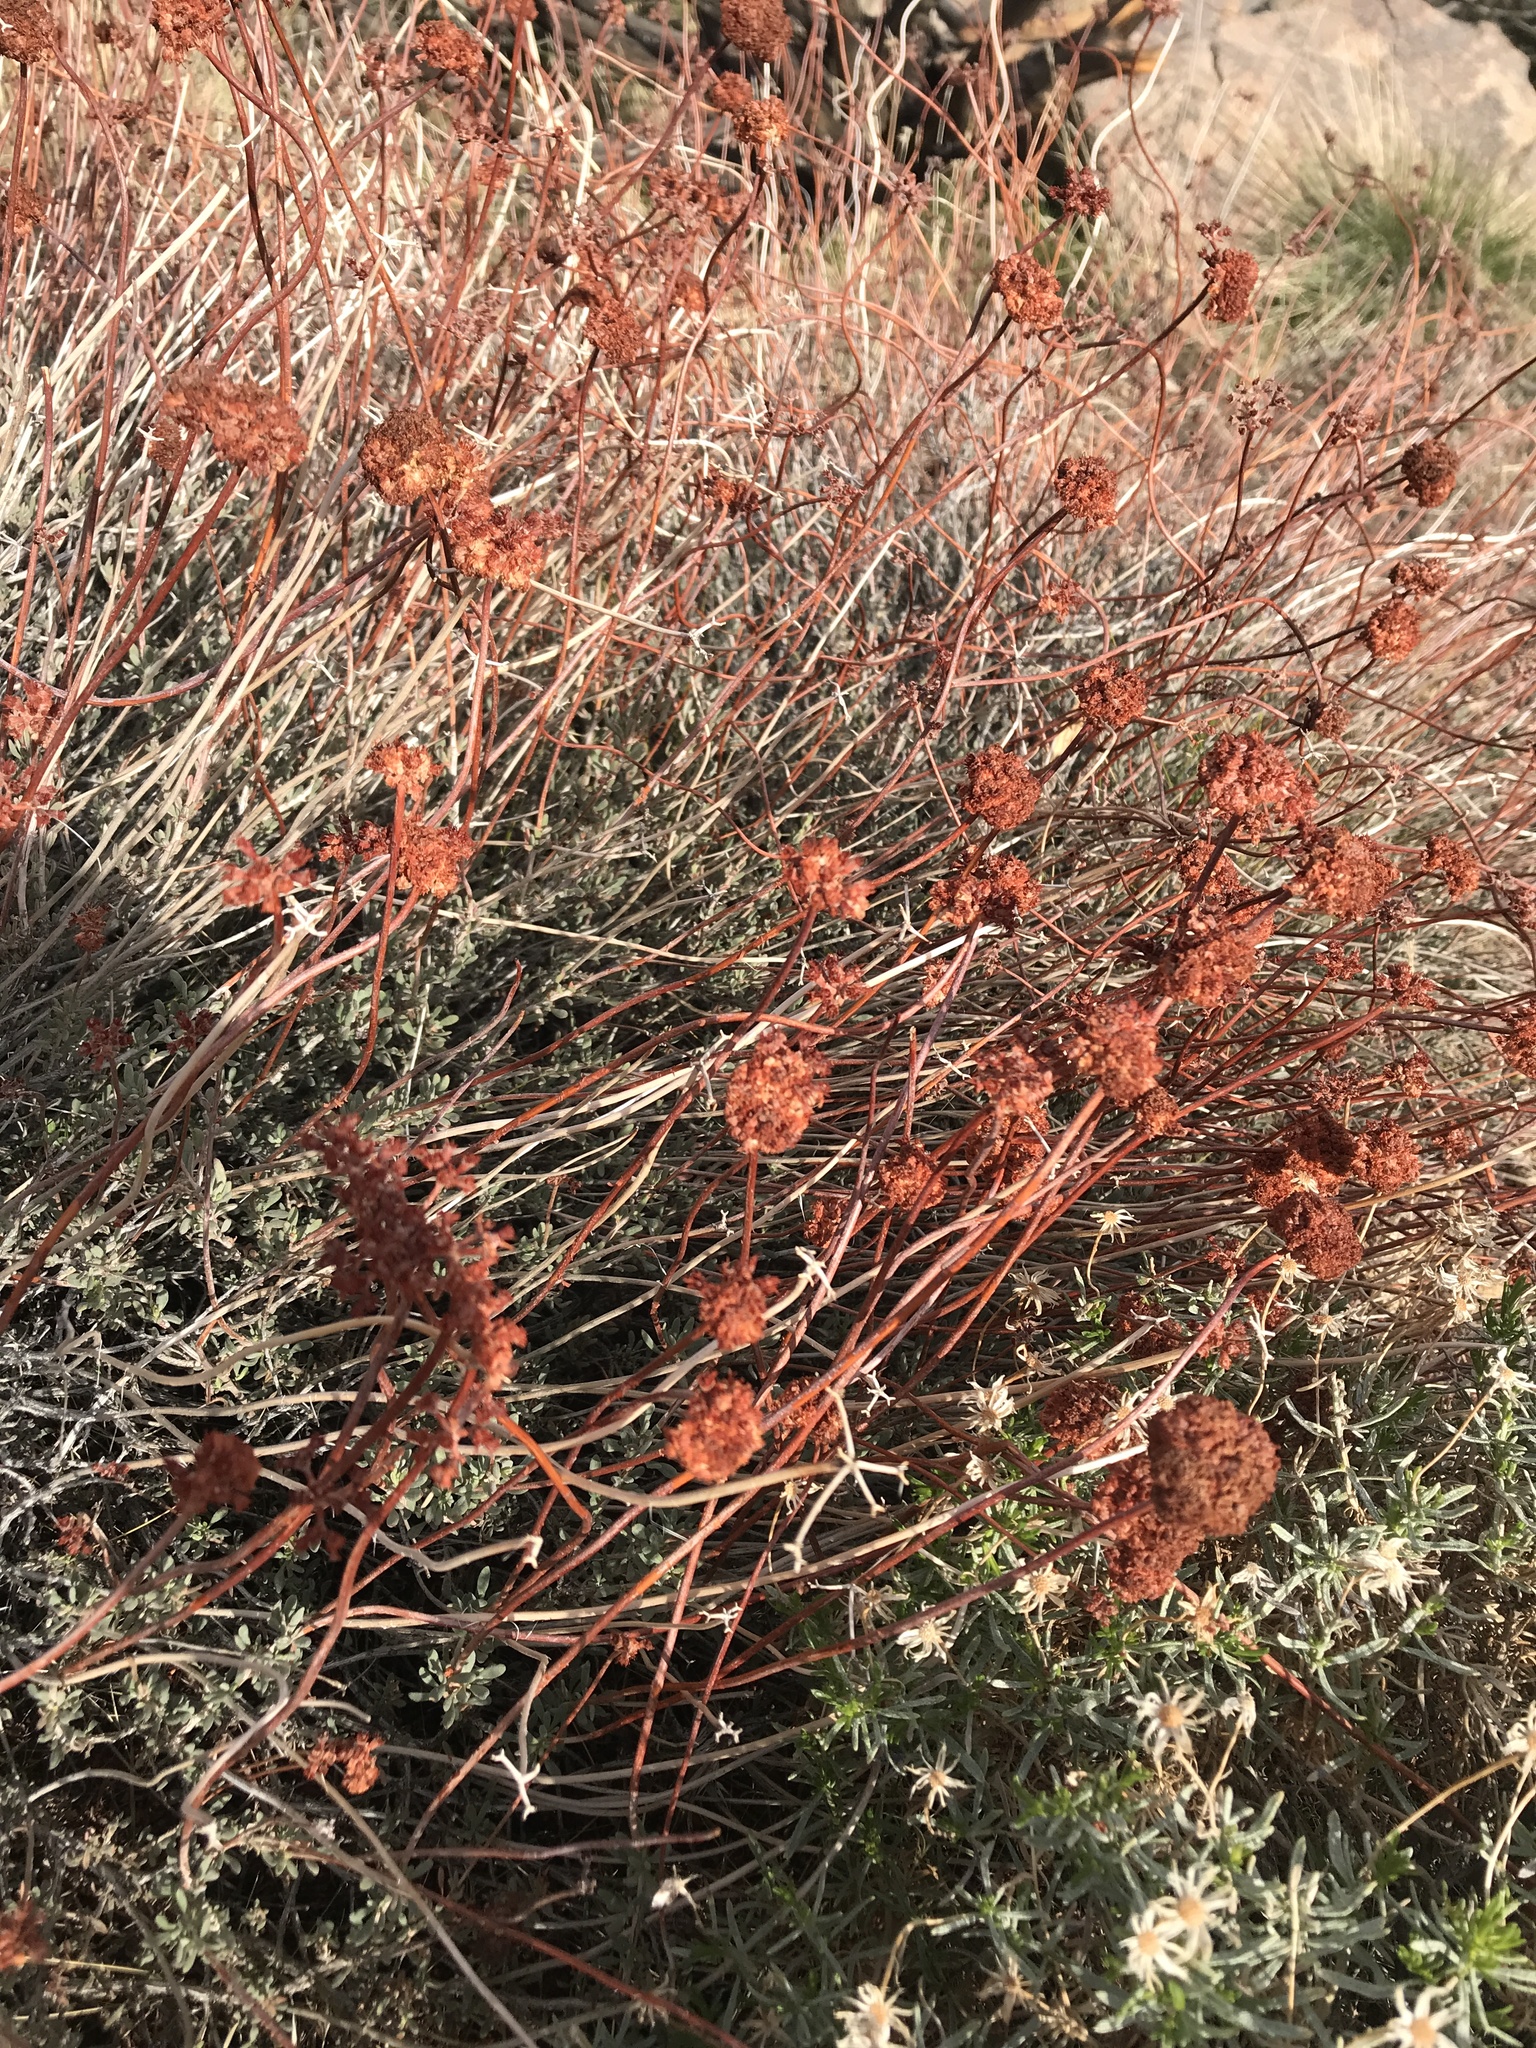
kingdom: Plantae
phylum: Tracheophyta
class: Magnoliopsida
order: Caryophyllales
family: Polygonaceae
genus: Eriogonum
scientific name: Eriogonum fasciculatum
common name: California wild buckwheat
